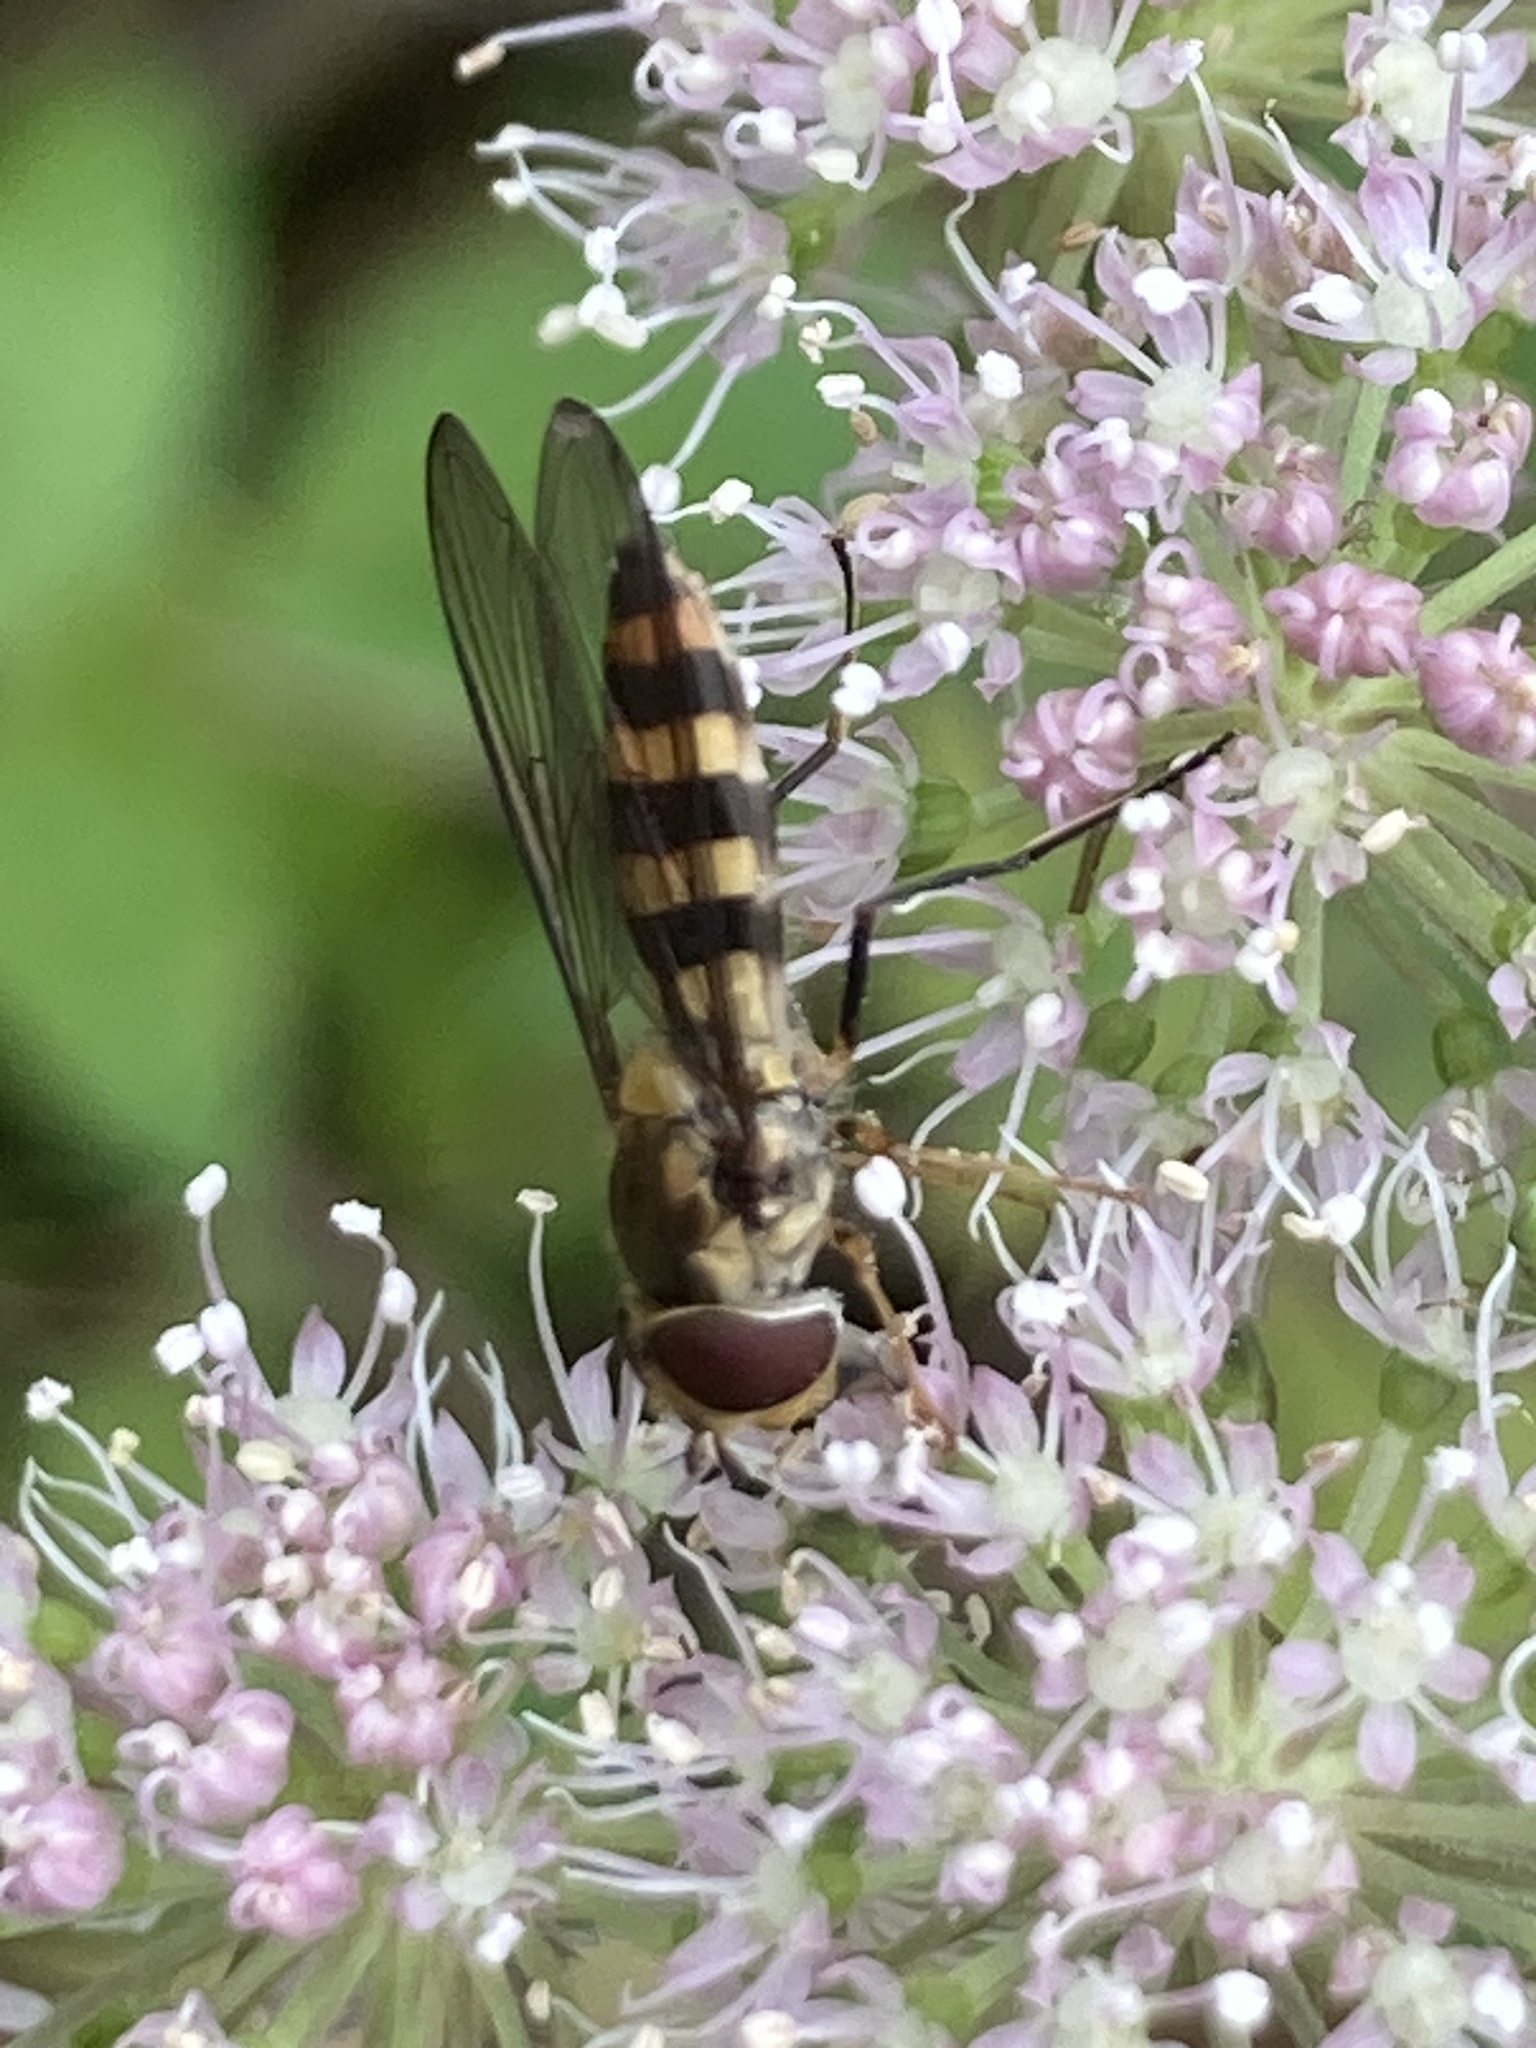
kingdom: Animalia
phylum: Arthropoda
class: Insecta
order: Diptera
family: Syrphidae
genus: Meliscaeva
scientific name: Meliscaeva cinctella
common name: American thintail fly
